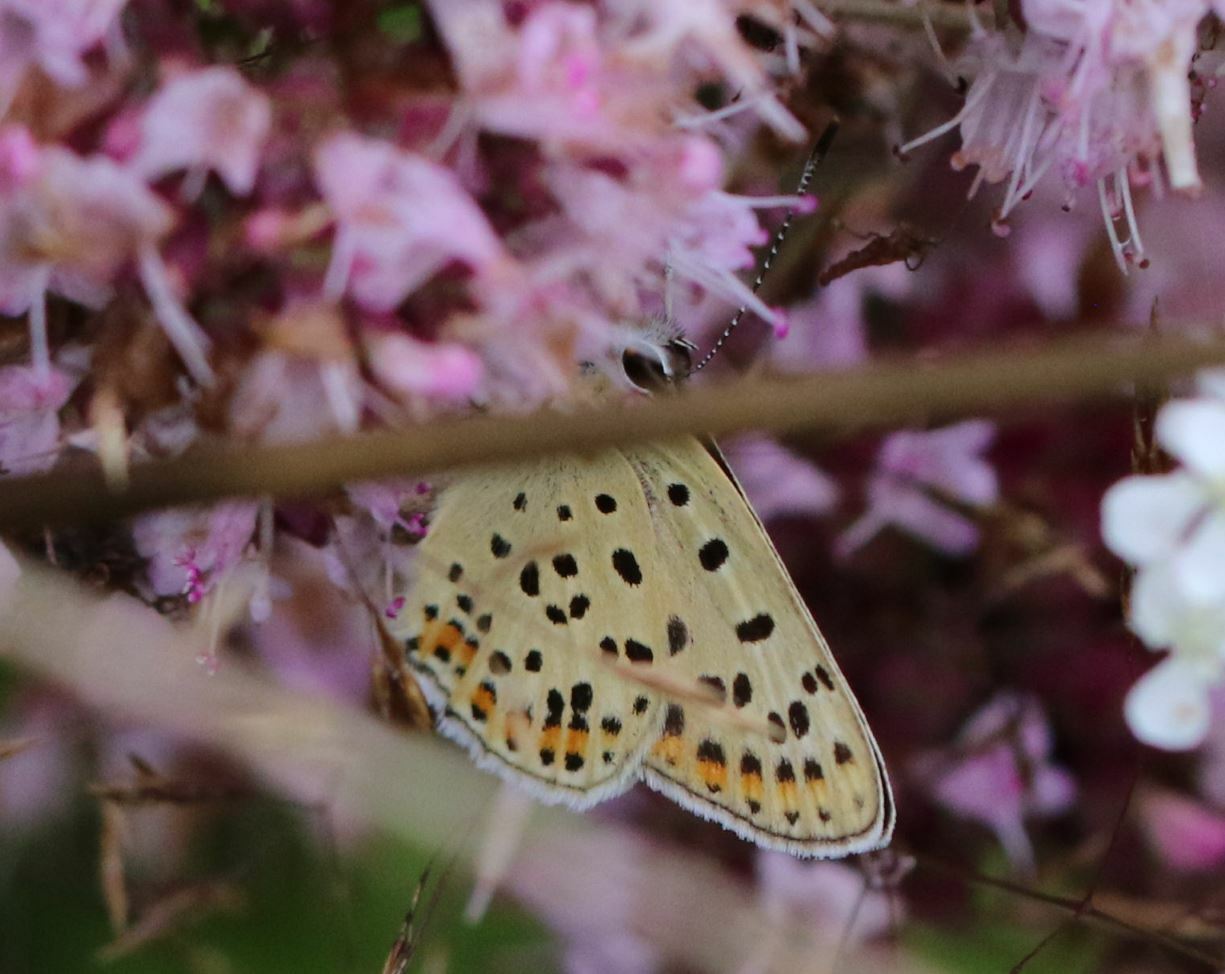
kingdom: Animalia
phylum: Arthropoda
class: Insecta
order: Lepidoptera
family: Lycaenidae
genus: Loweia
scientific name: Loweia tityrus
